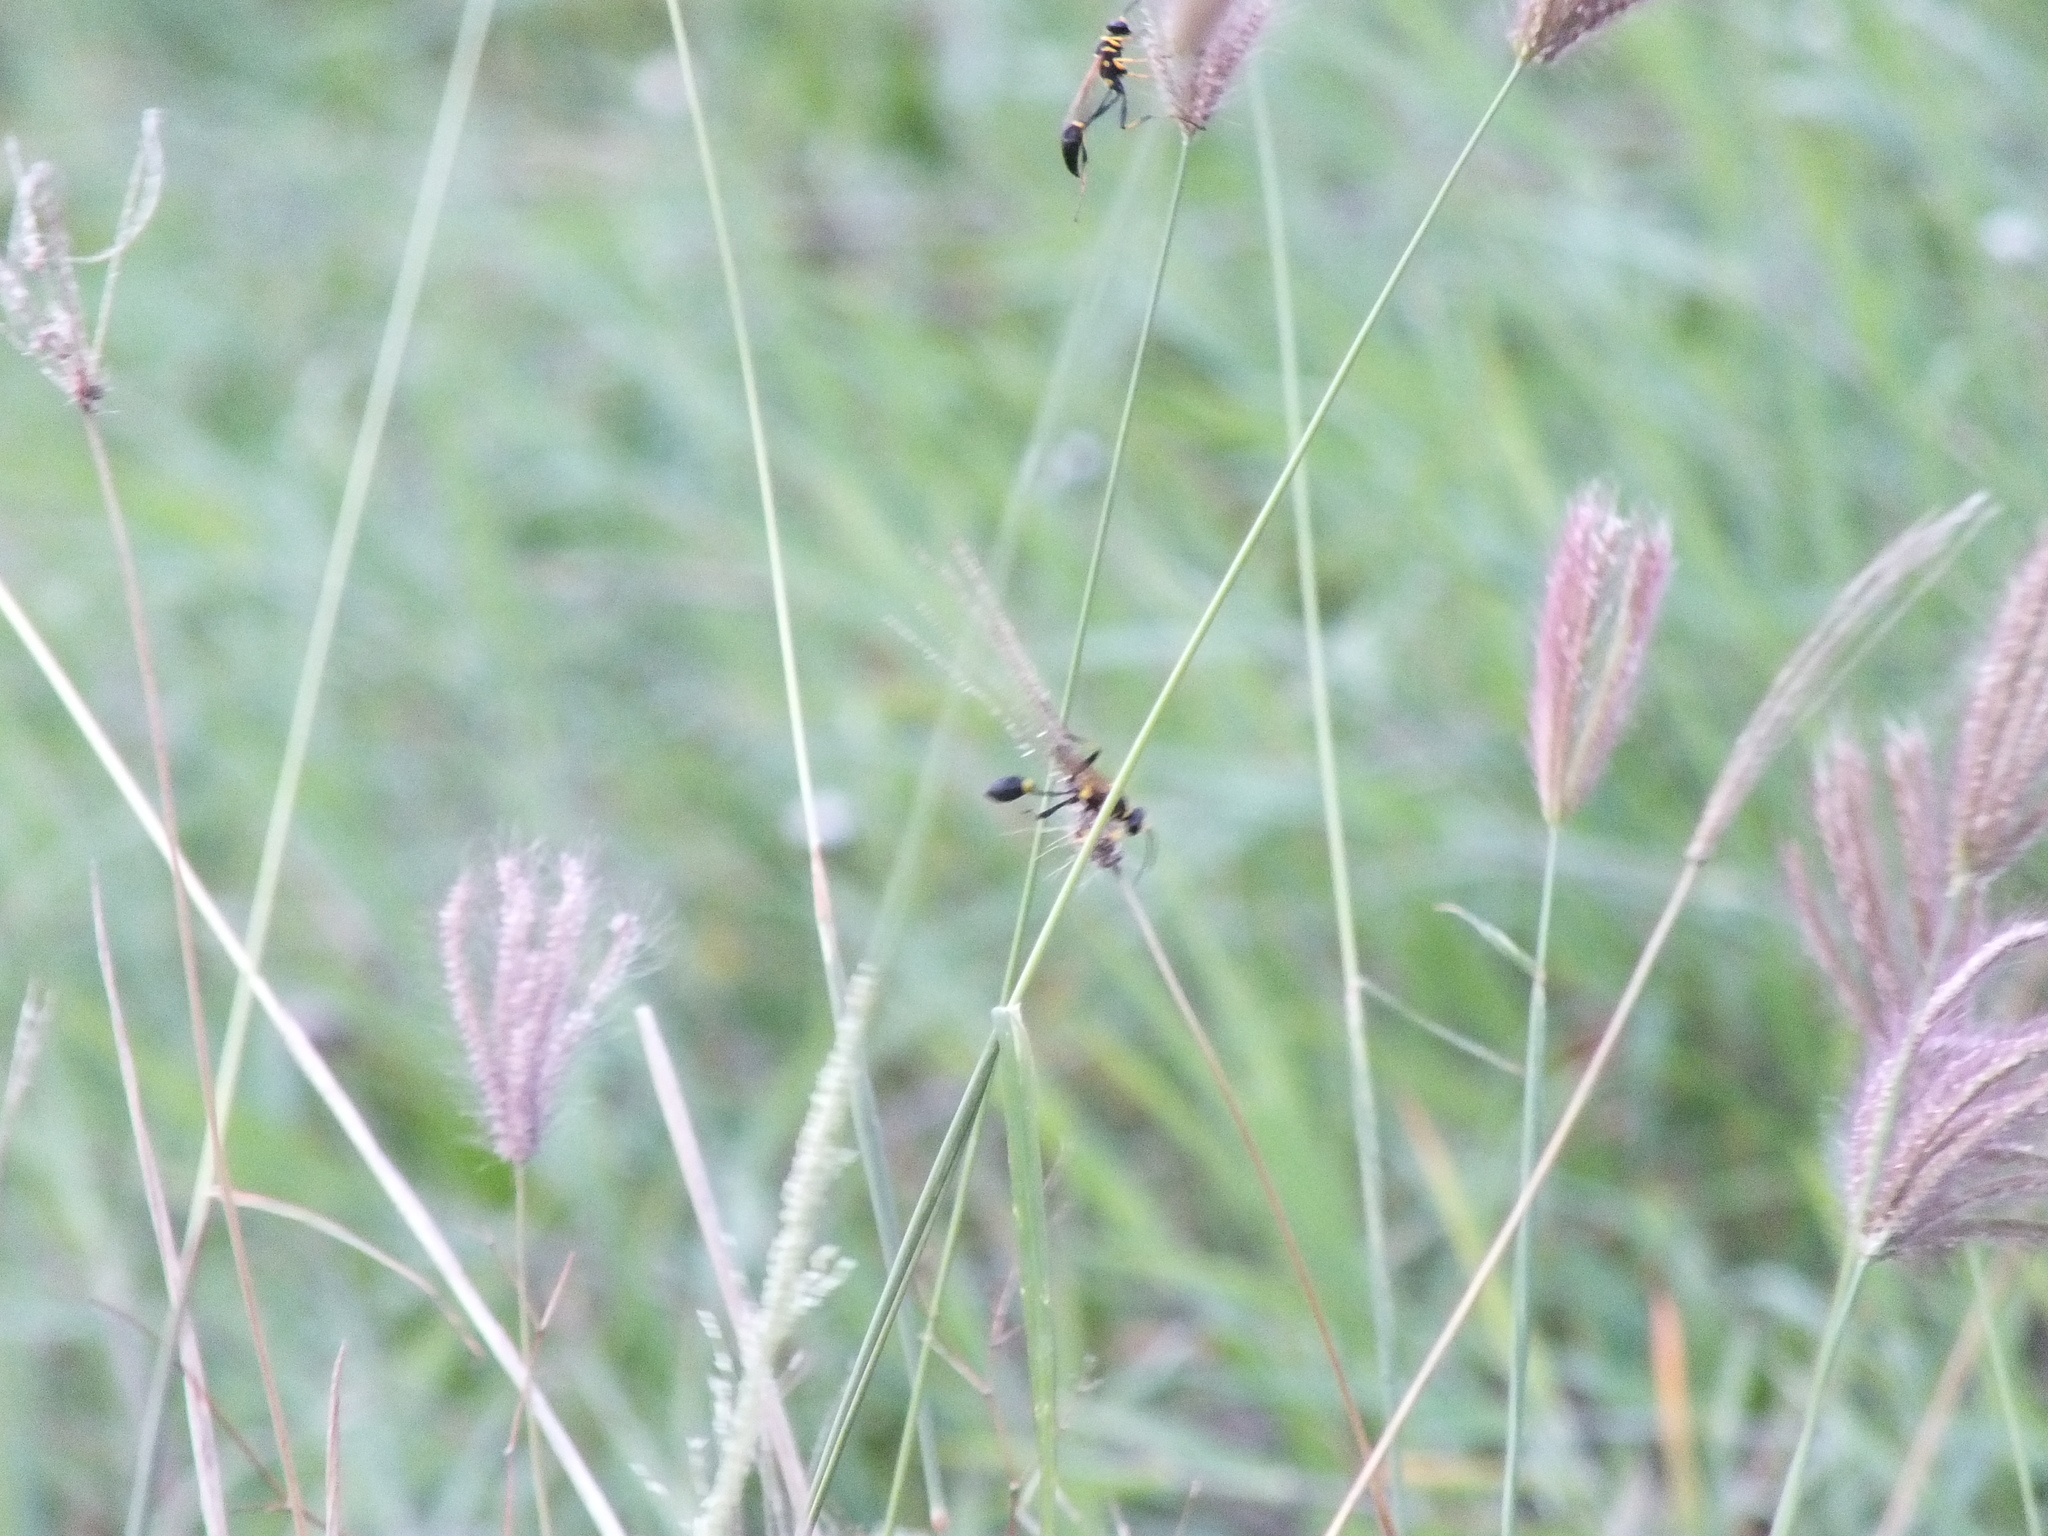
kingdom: Animalia
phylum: Arthropoda
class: Insecta
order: Hymenoptera
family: Sphecidae
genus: Sceliphron
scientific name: Sceliphron caementarium
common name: Mud dauber
